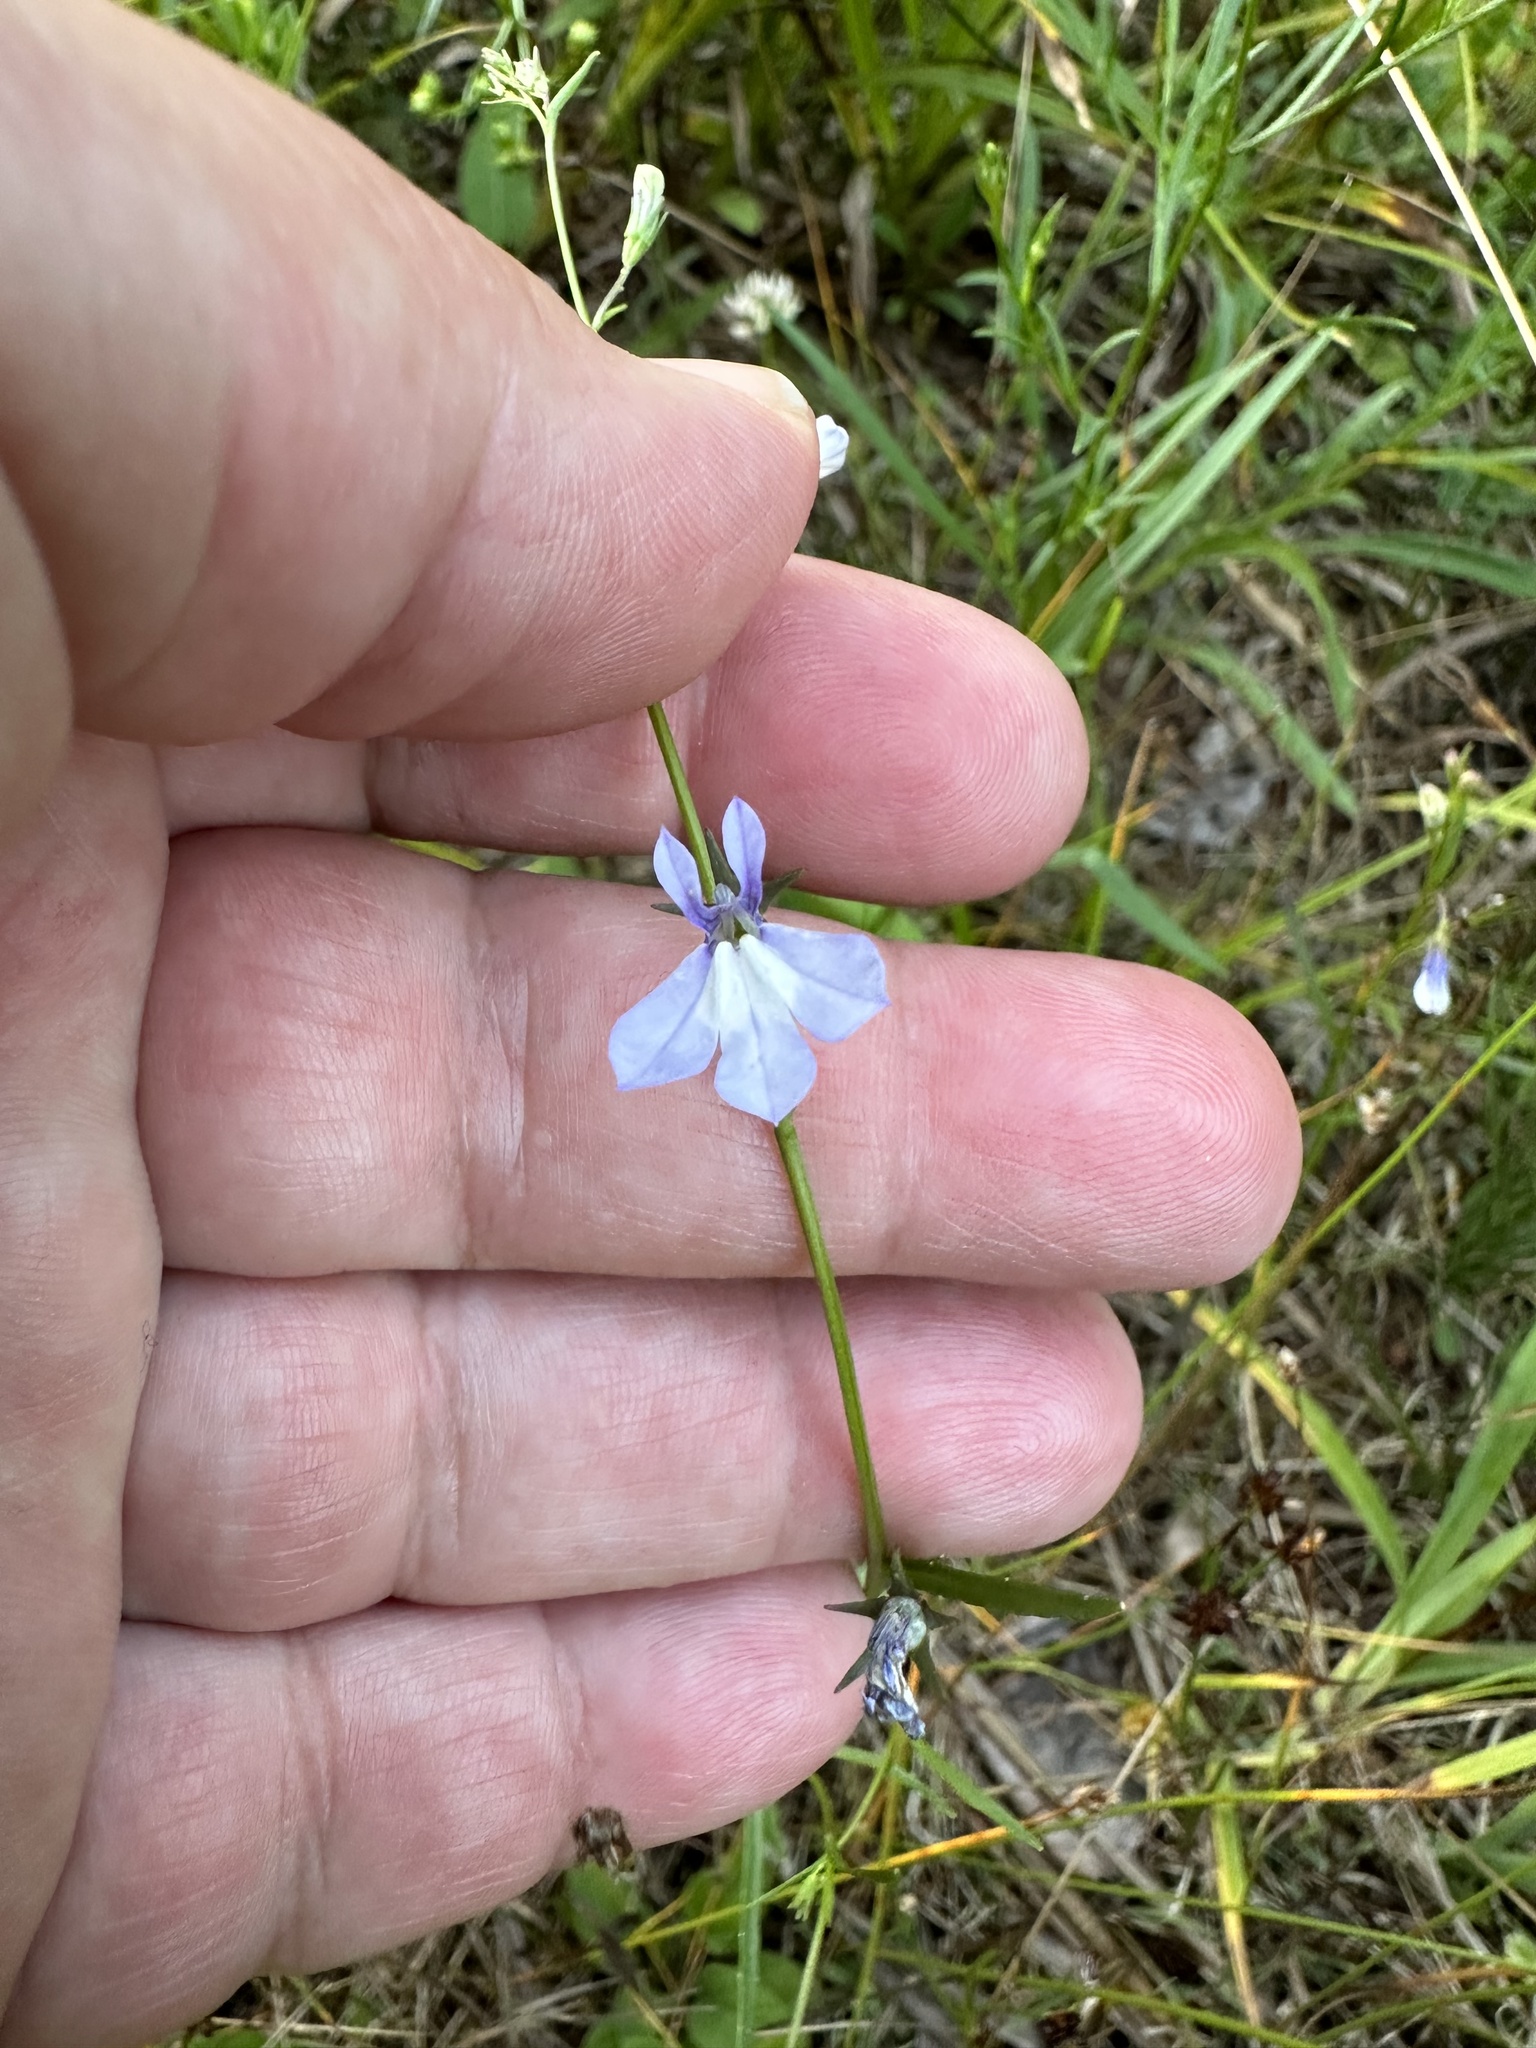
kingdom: Plantae
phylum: Tracheophyta
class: Magnoliopsida
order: Asterales
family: Campanulaceae
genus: Lobelia
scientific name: Lobelia kalmii
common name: Kalm's lobelia
